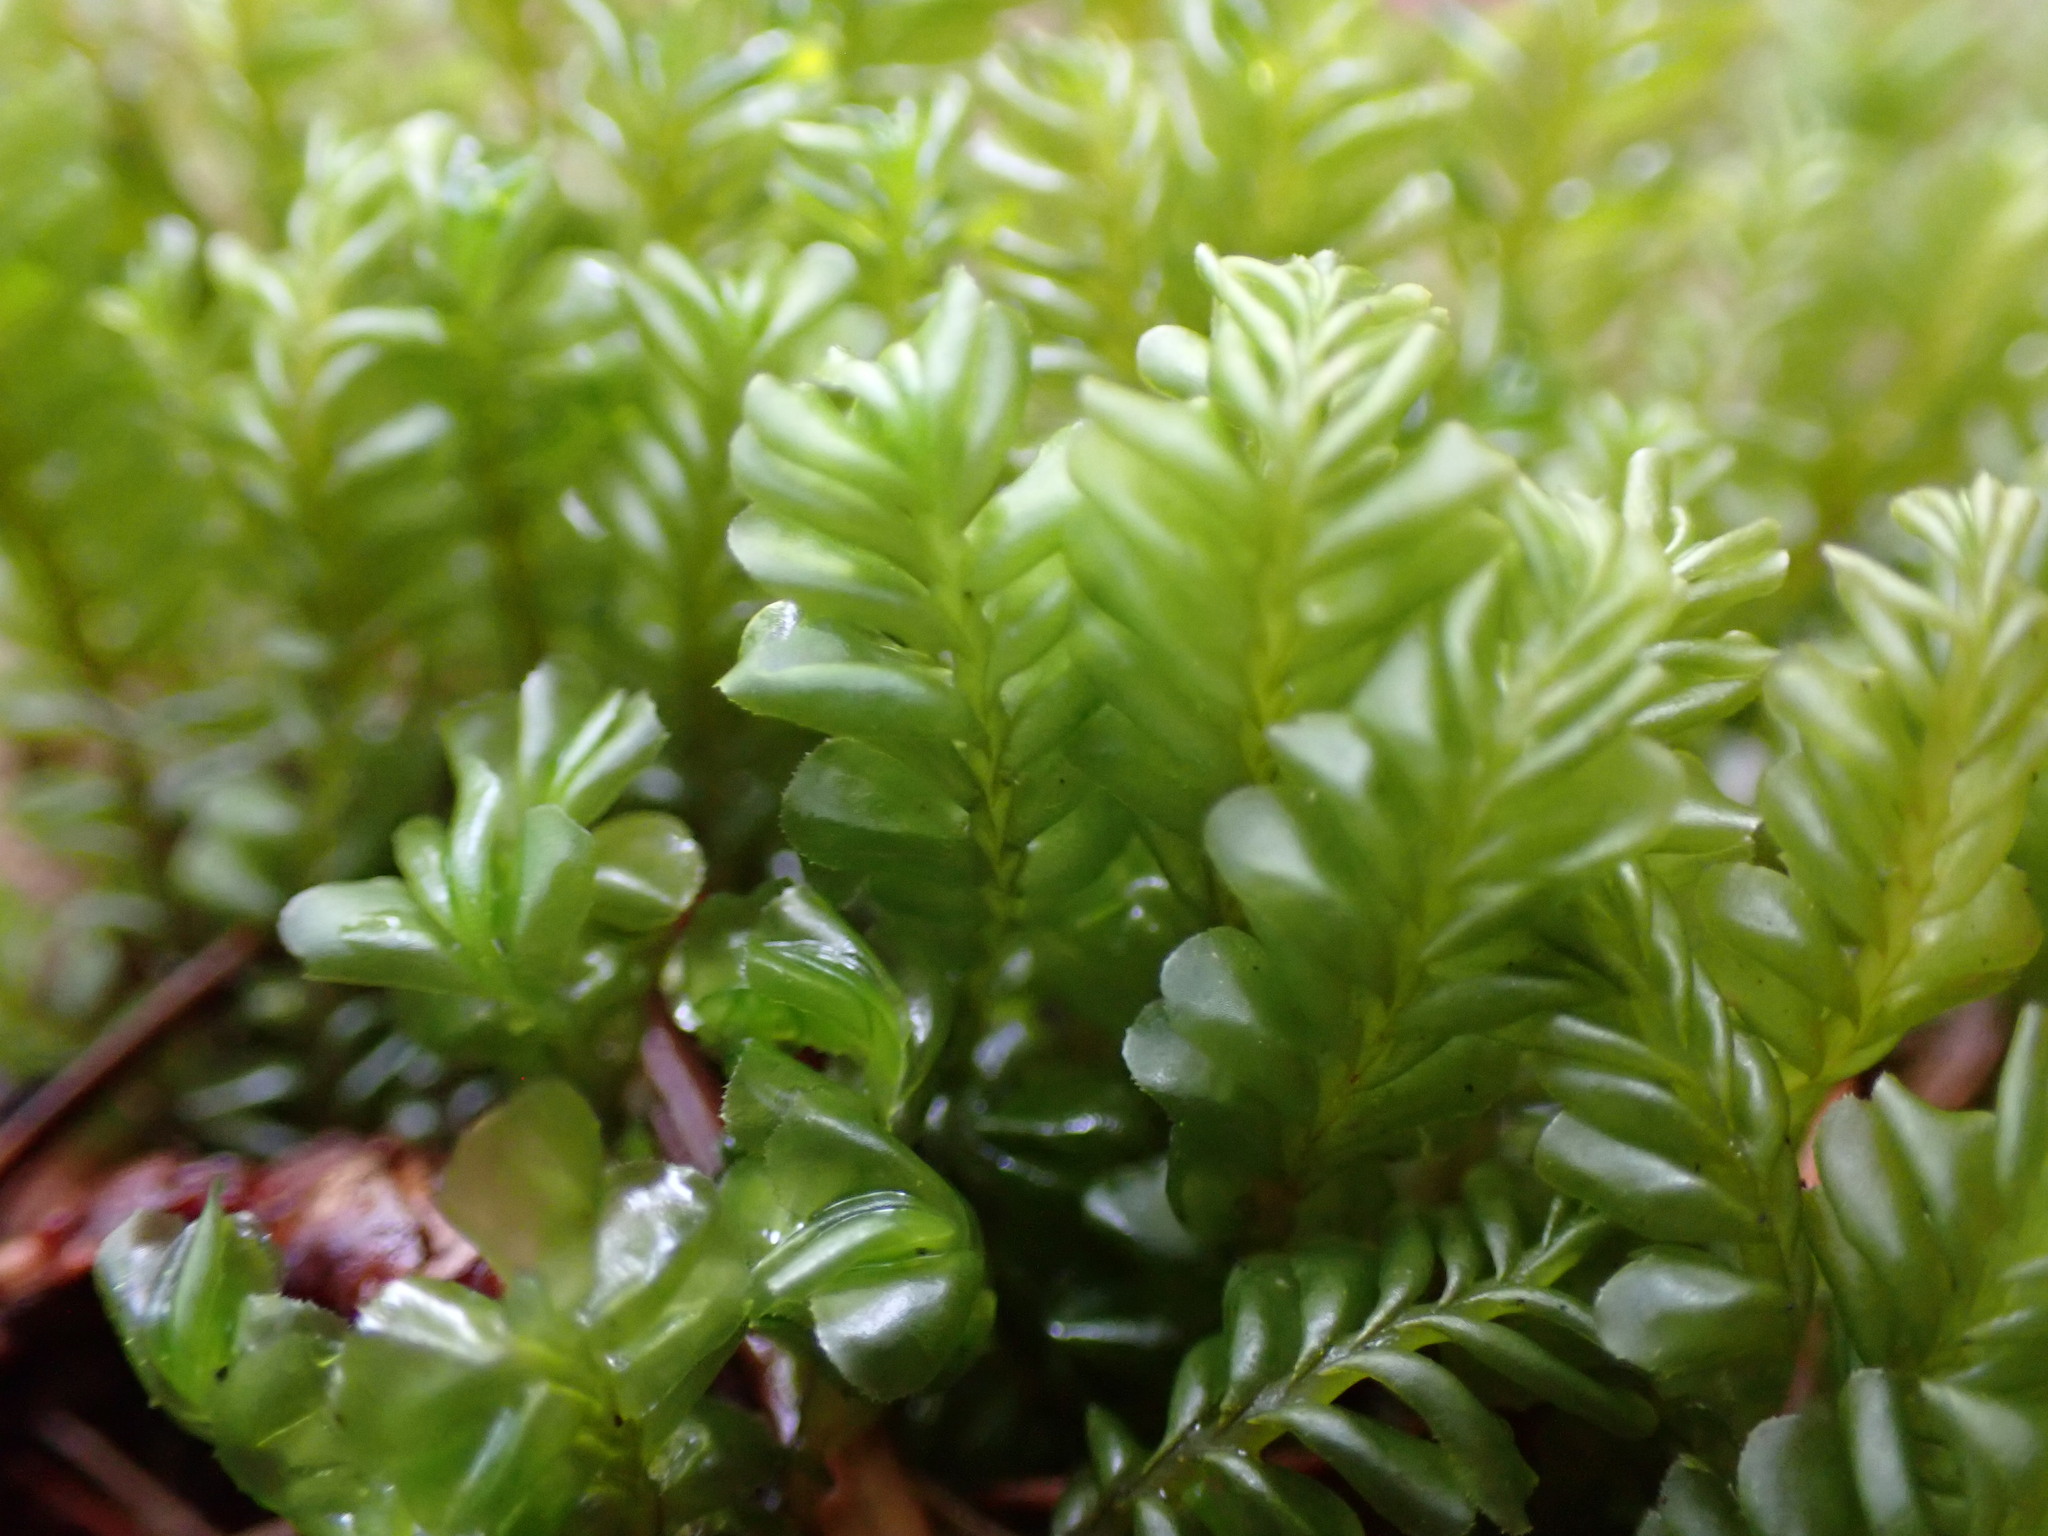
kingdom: Plantae
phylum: Marchantiophyta
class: Jungermanniopsida
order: Jungermanniales
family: Plagiochilaceae
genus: Plagiochila
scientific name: Plagiochila porelloides
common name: Lesser featherwort
